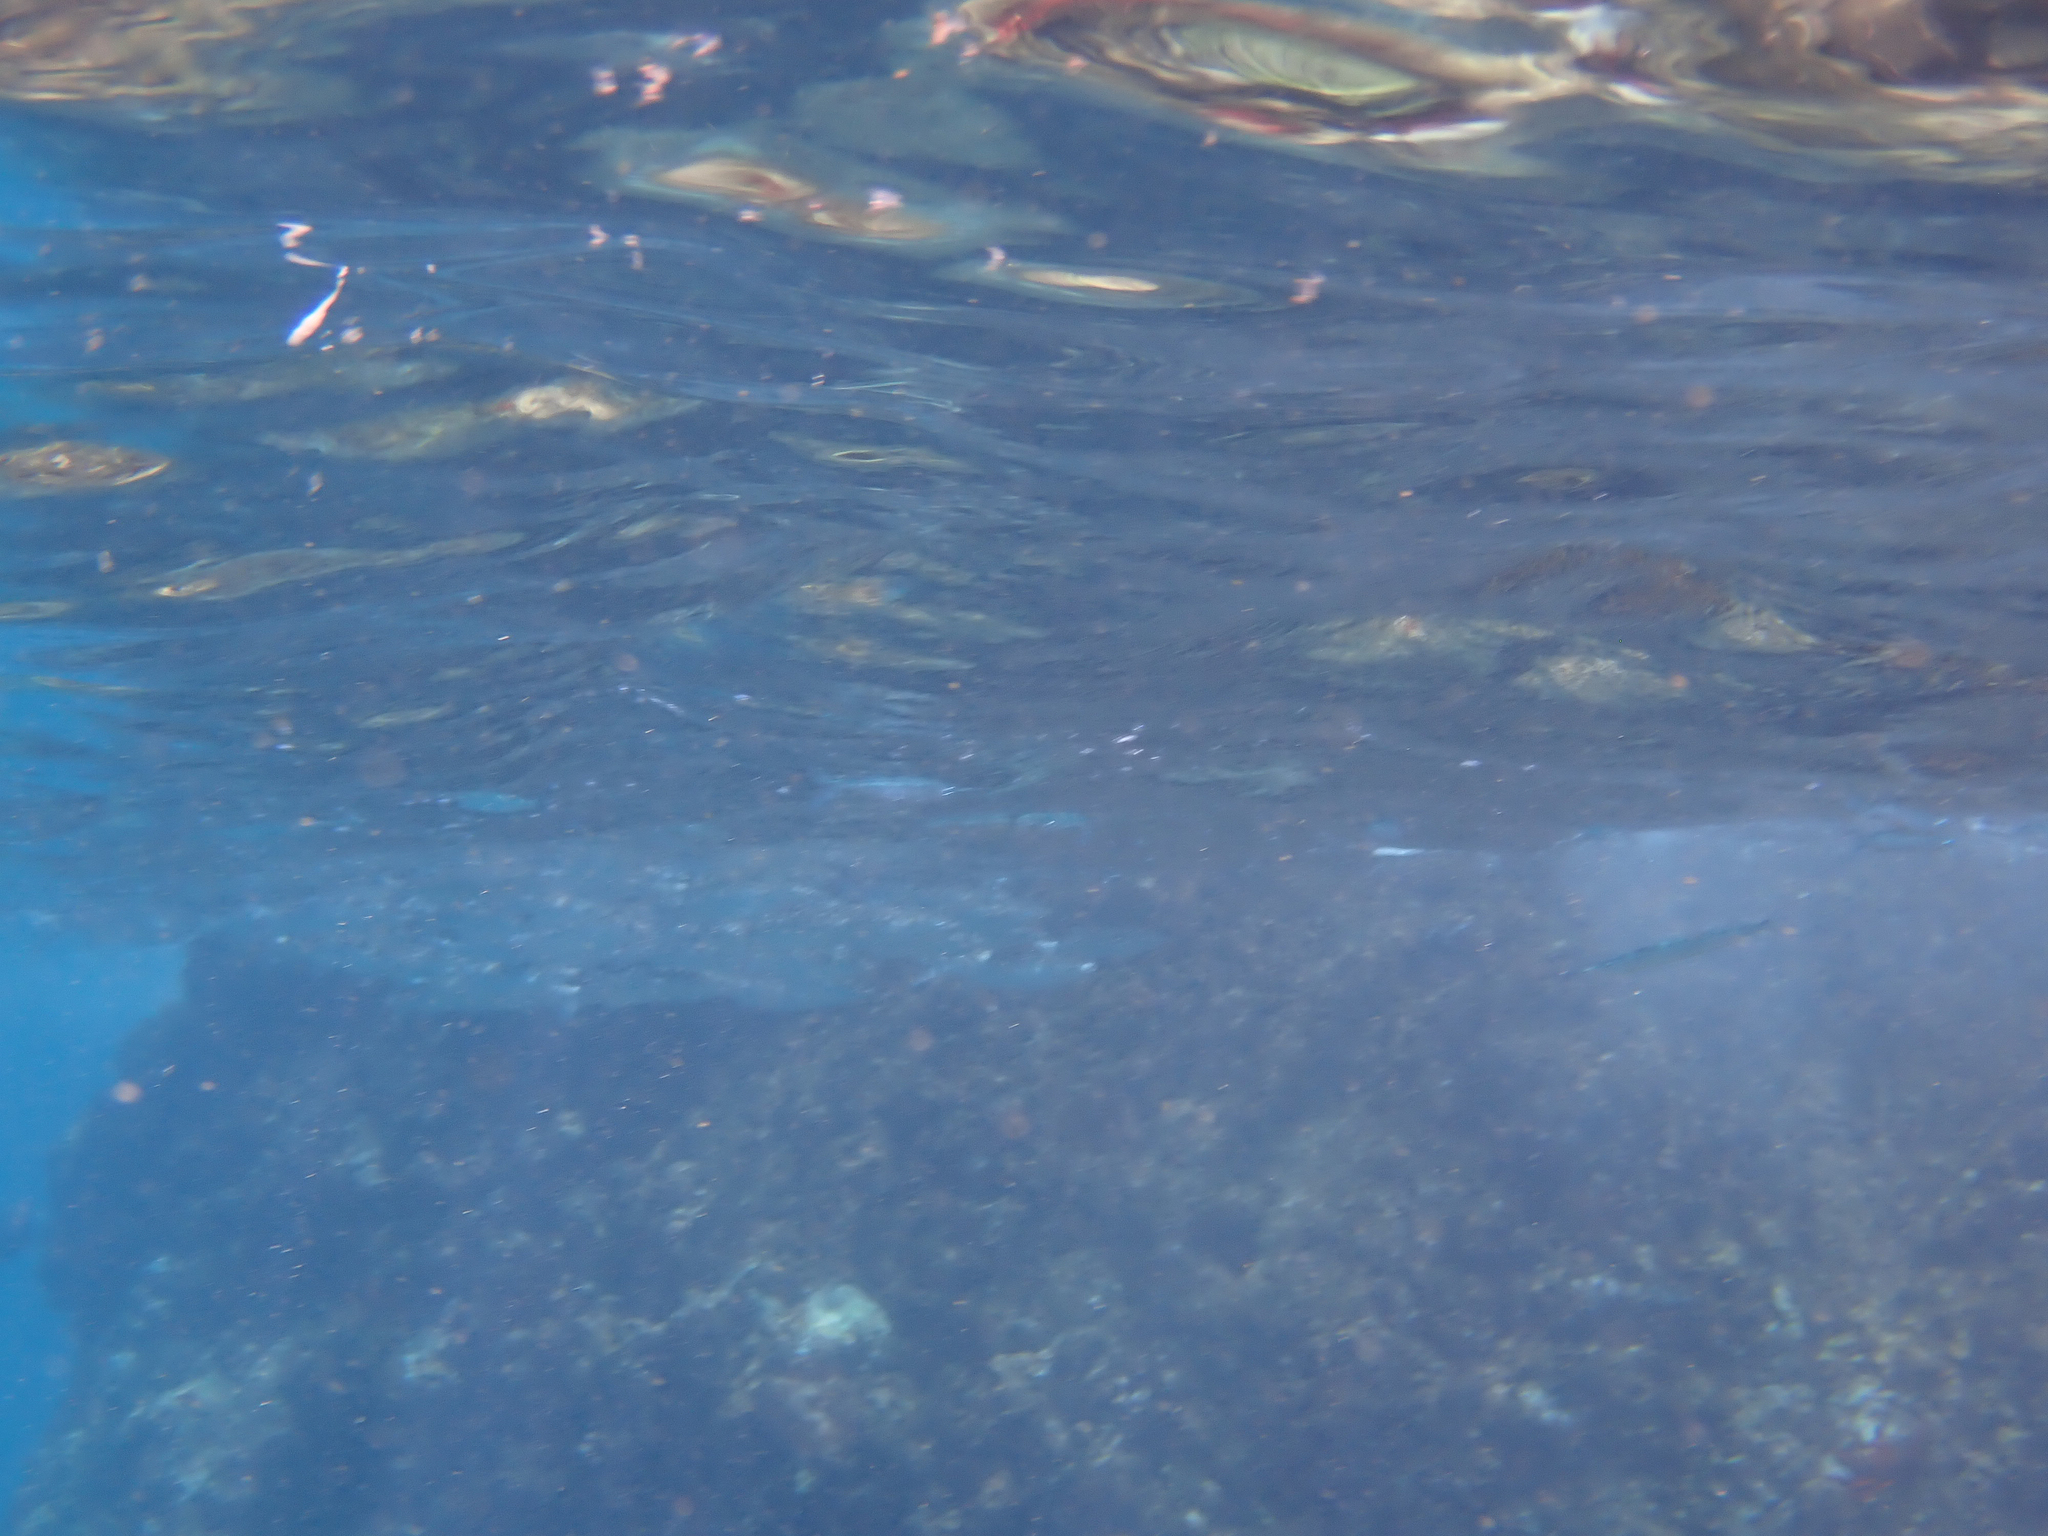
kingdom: Animalia
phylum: Chordata
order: Mugiliformes
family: Mugilidae
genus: Neomyxus
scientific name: Neomyxus leuciscus
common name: Acute-jawed mullet
